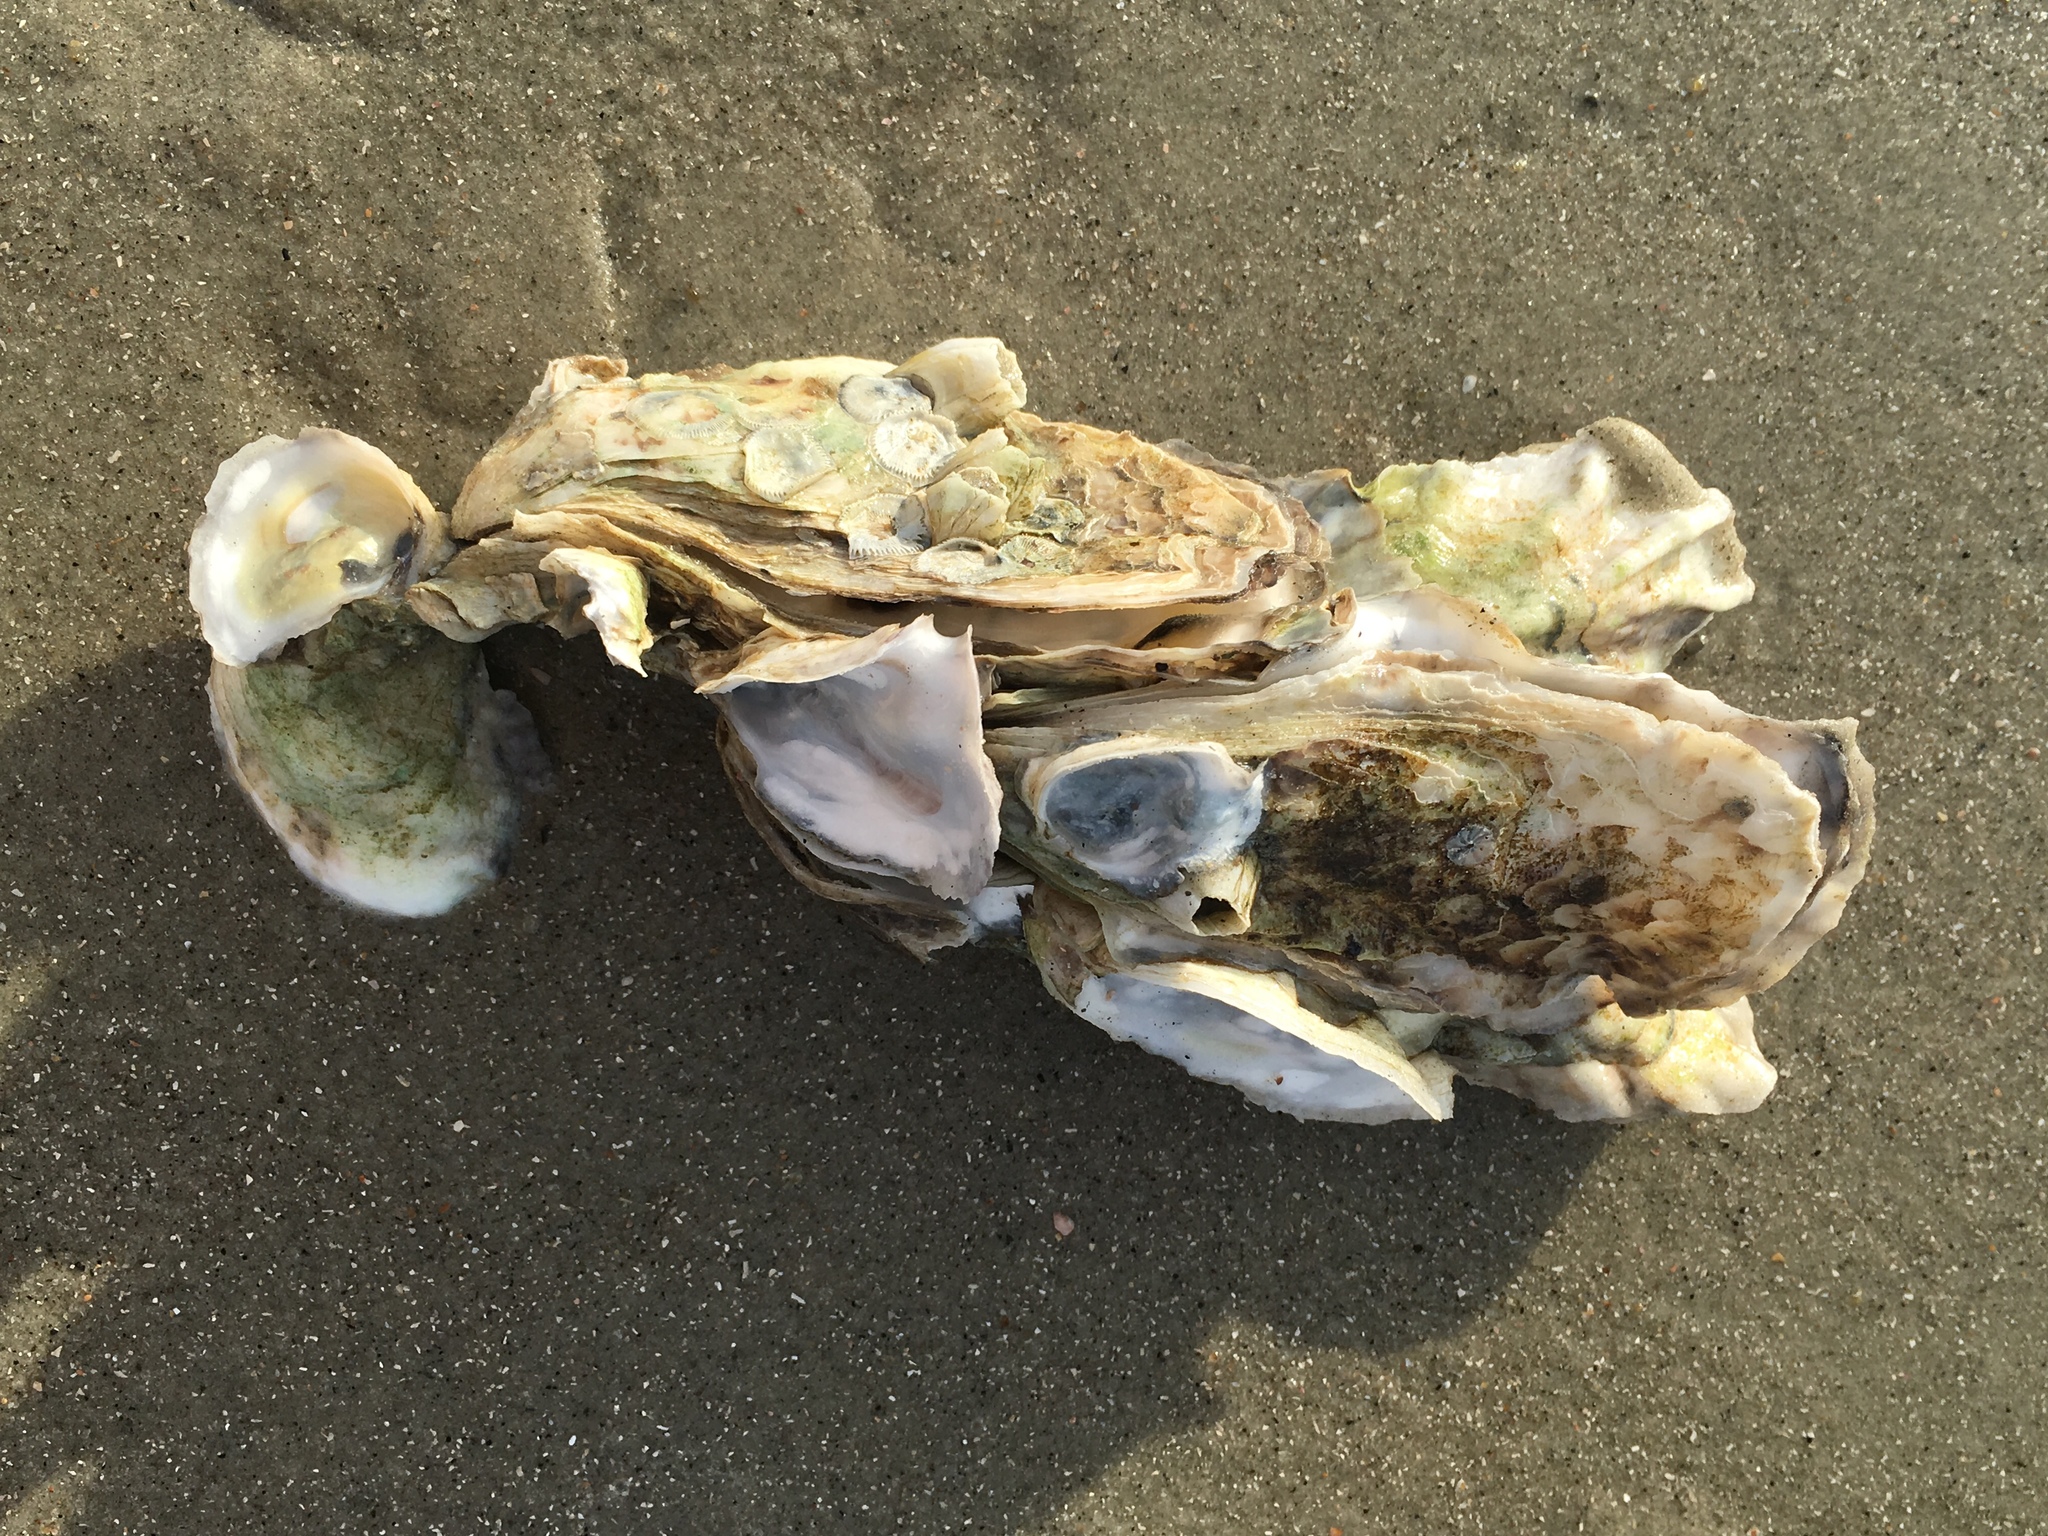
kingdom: Animalia
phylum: Mollusca
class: Bivalvia
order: Ostreida
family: Ostreidae
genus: Crassostrea
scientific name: Crassostrea virginica
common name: American oyster
